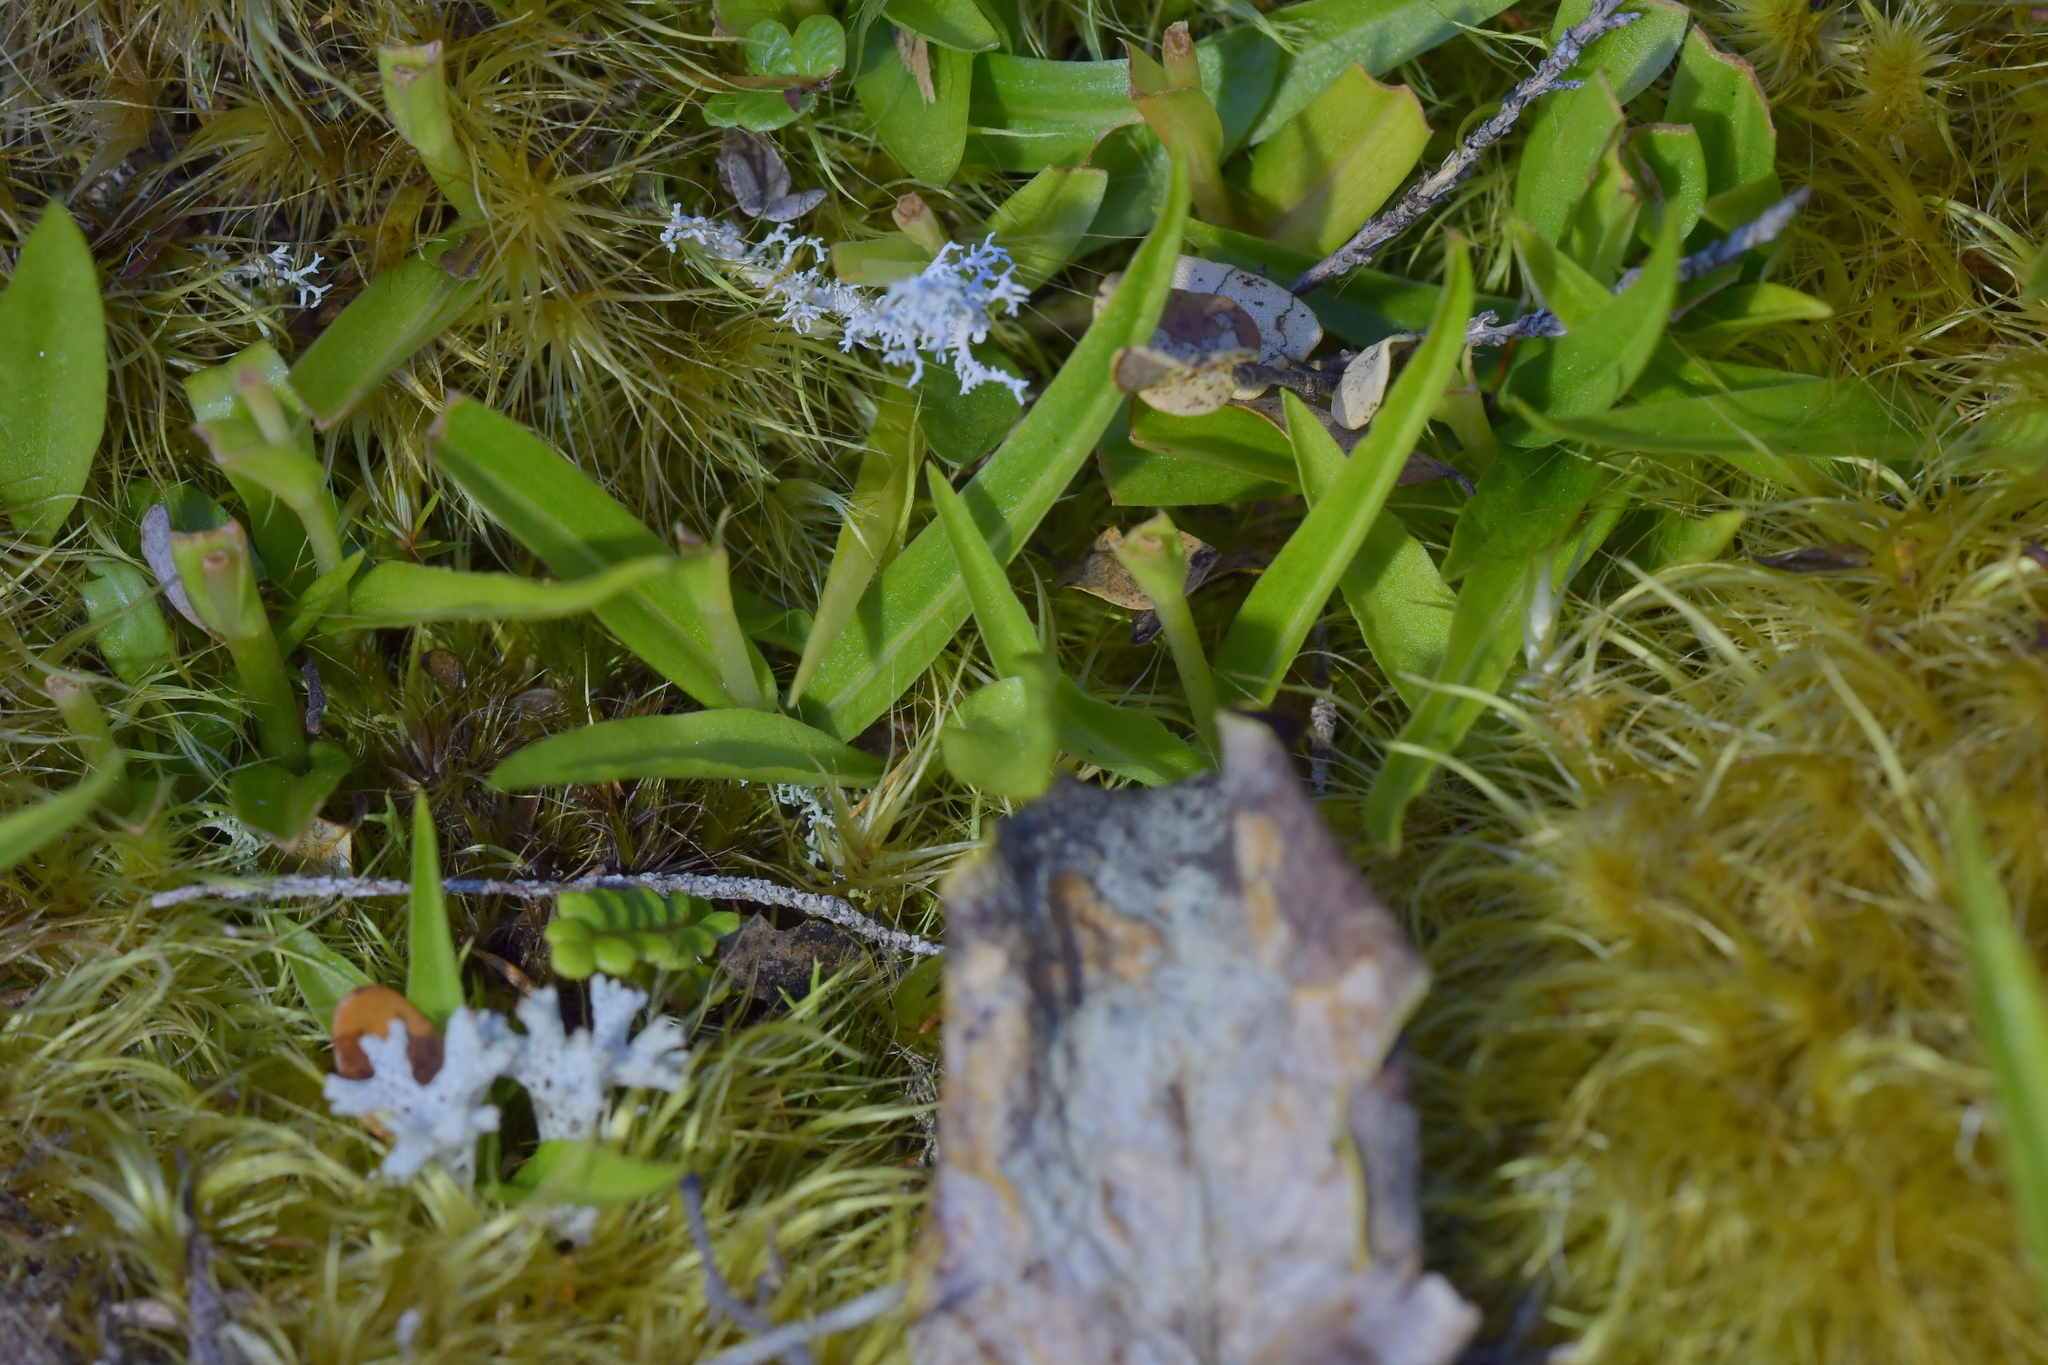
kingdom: Plantae
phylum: Tracheophyta
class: Liliopsida
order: Asparagales
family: Orchidaceae
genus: Pterostylis
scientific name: Pterostylis cernua
